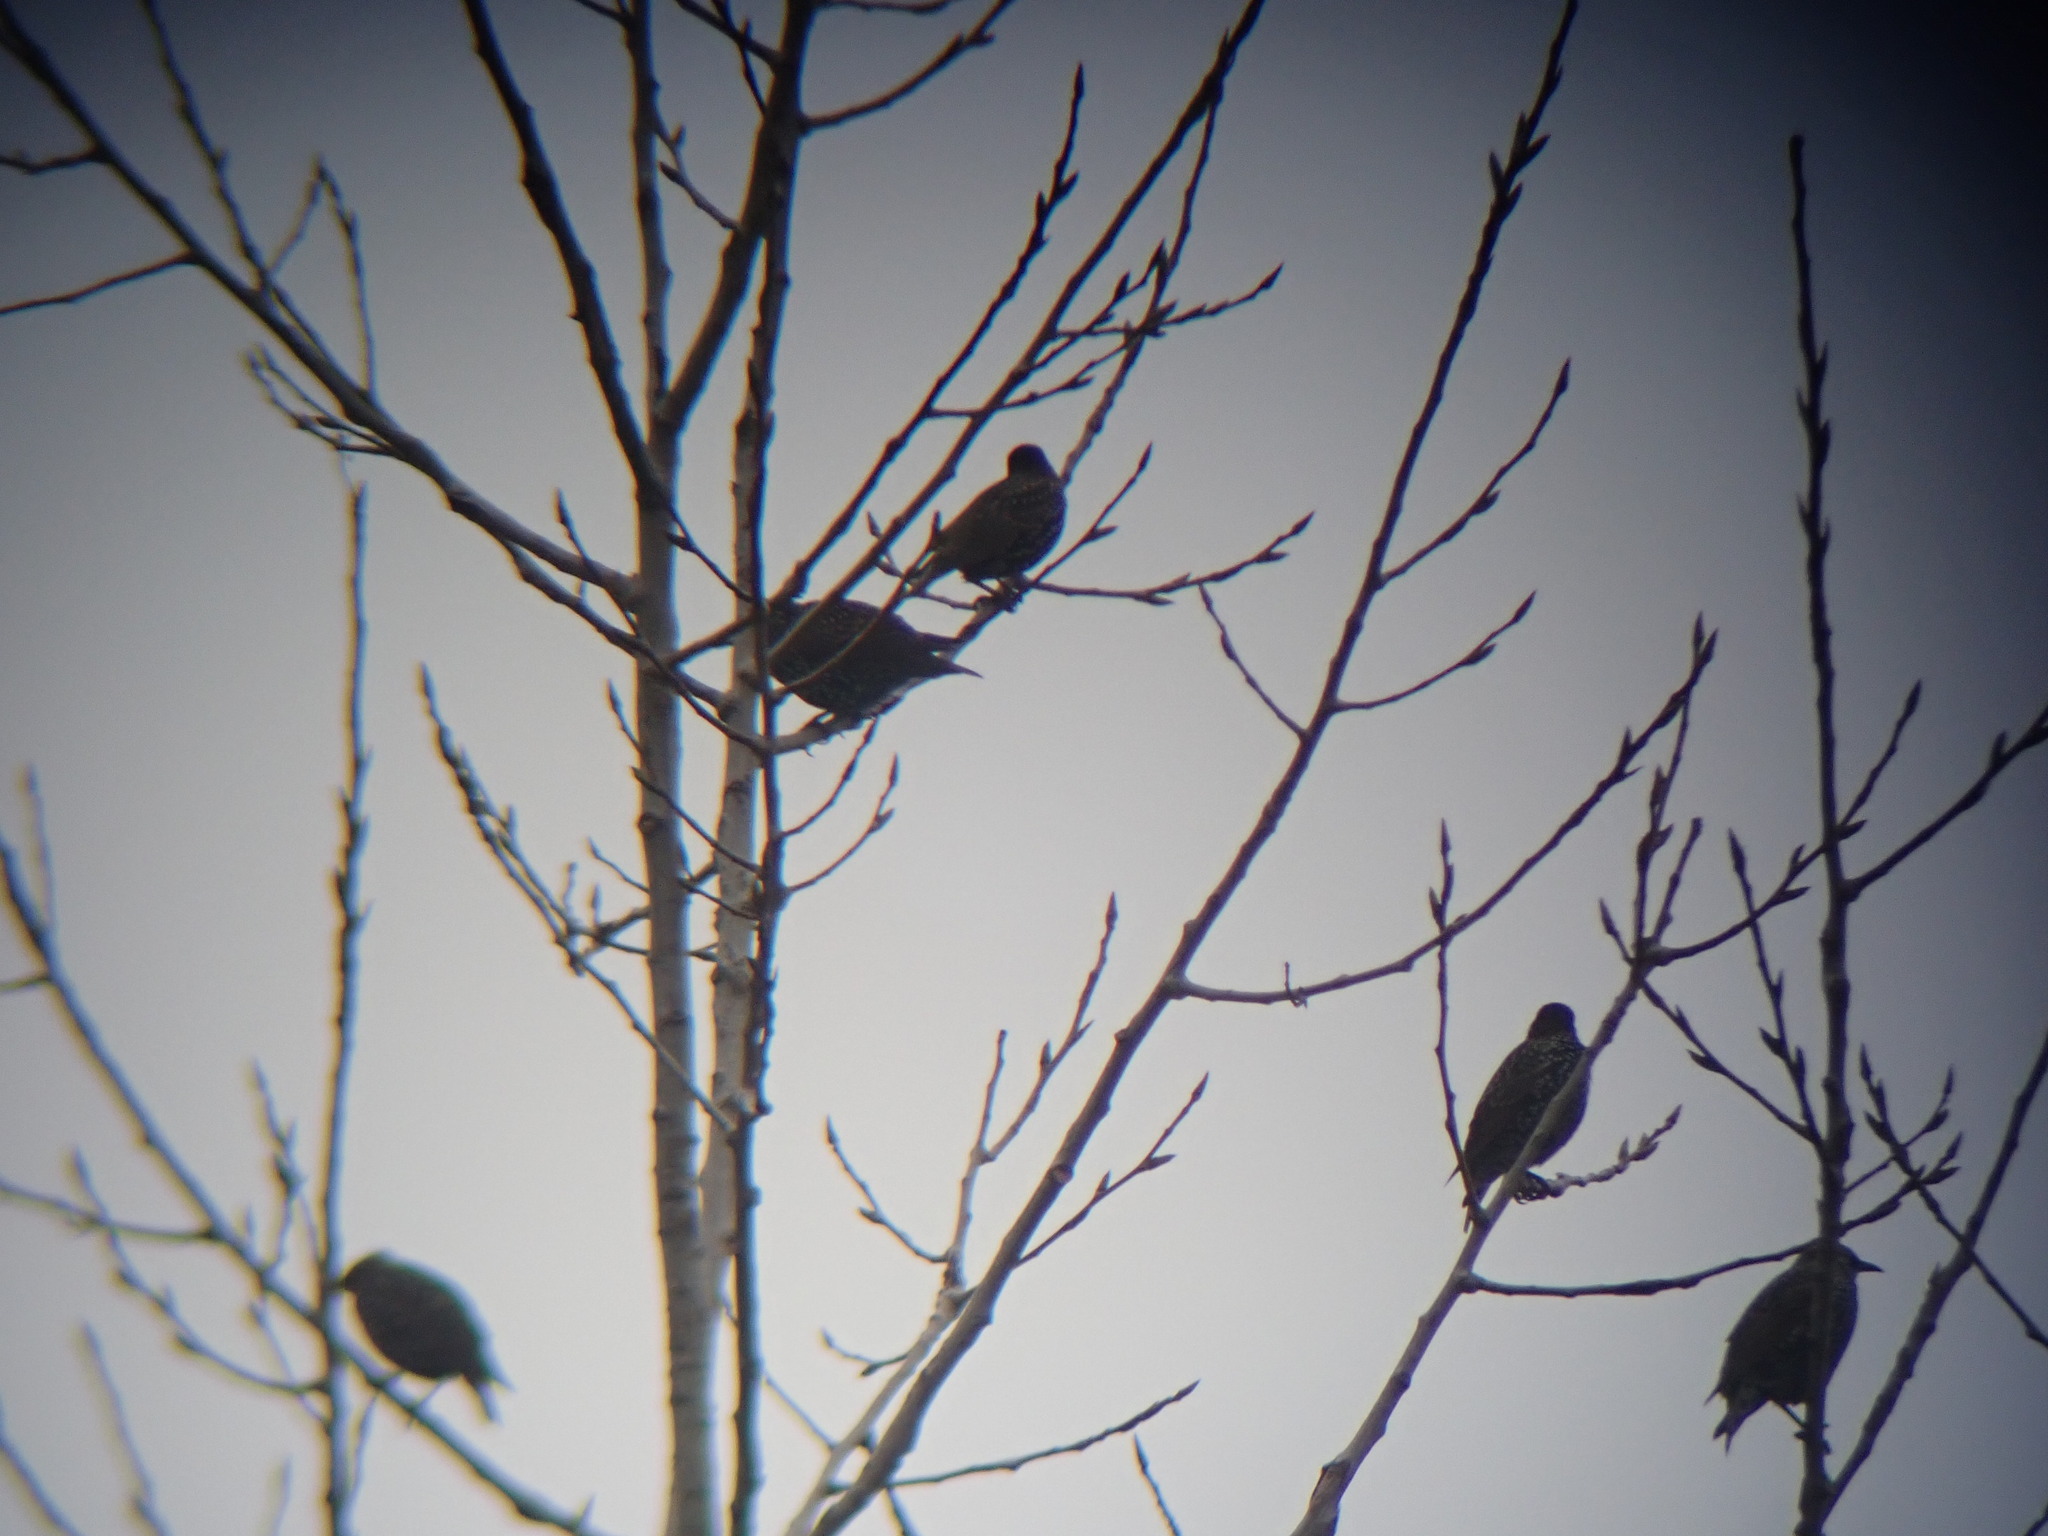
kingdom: Animalia
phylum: Chordata
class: Aves
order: Passeriformes
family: Sturnidae
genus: Sturnus
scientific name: Sturnus vulgaris
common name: Common starling
